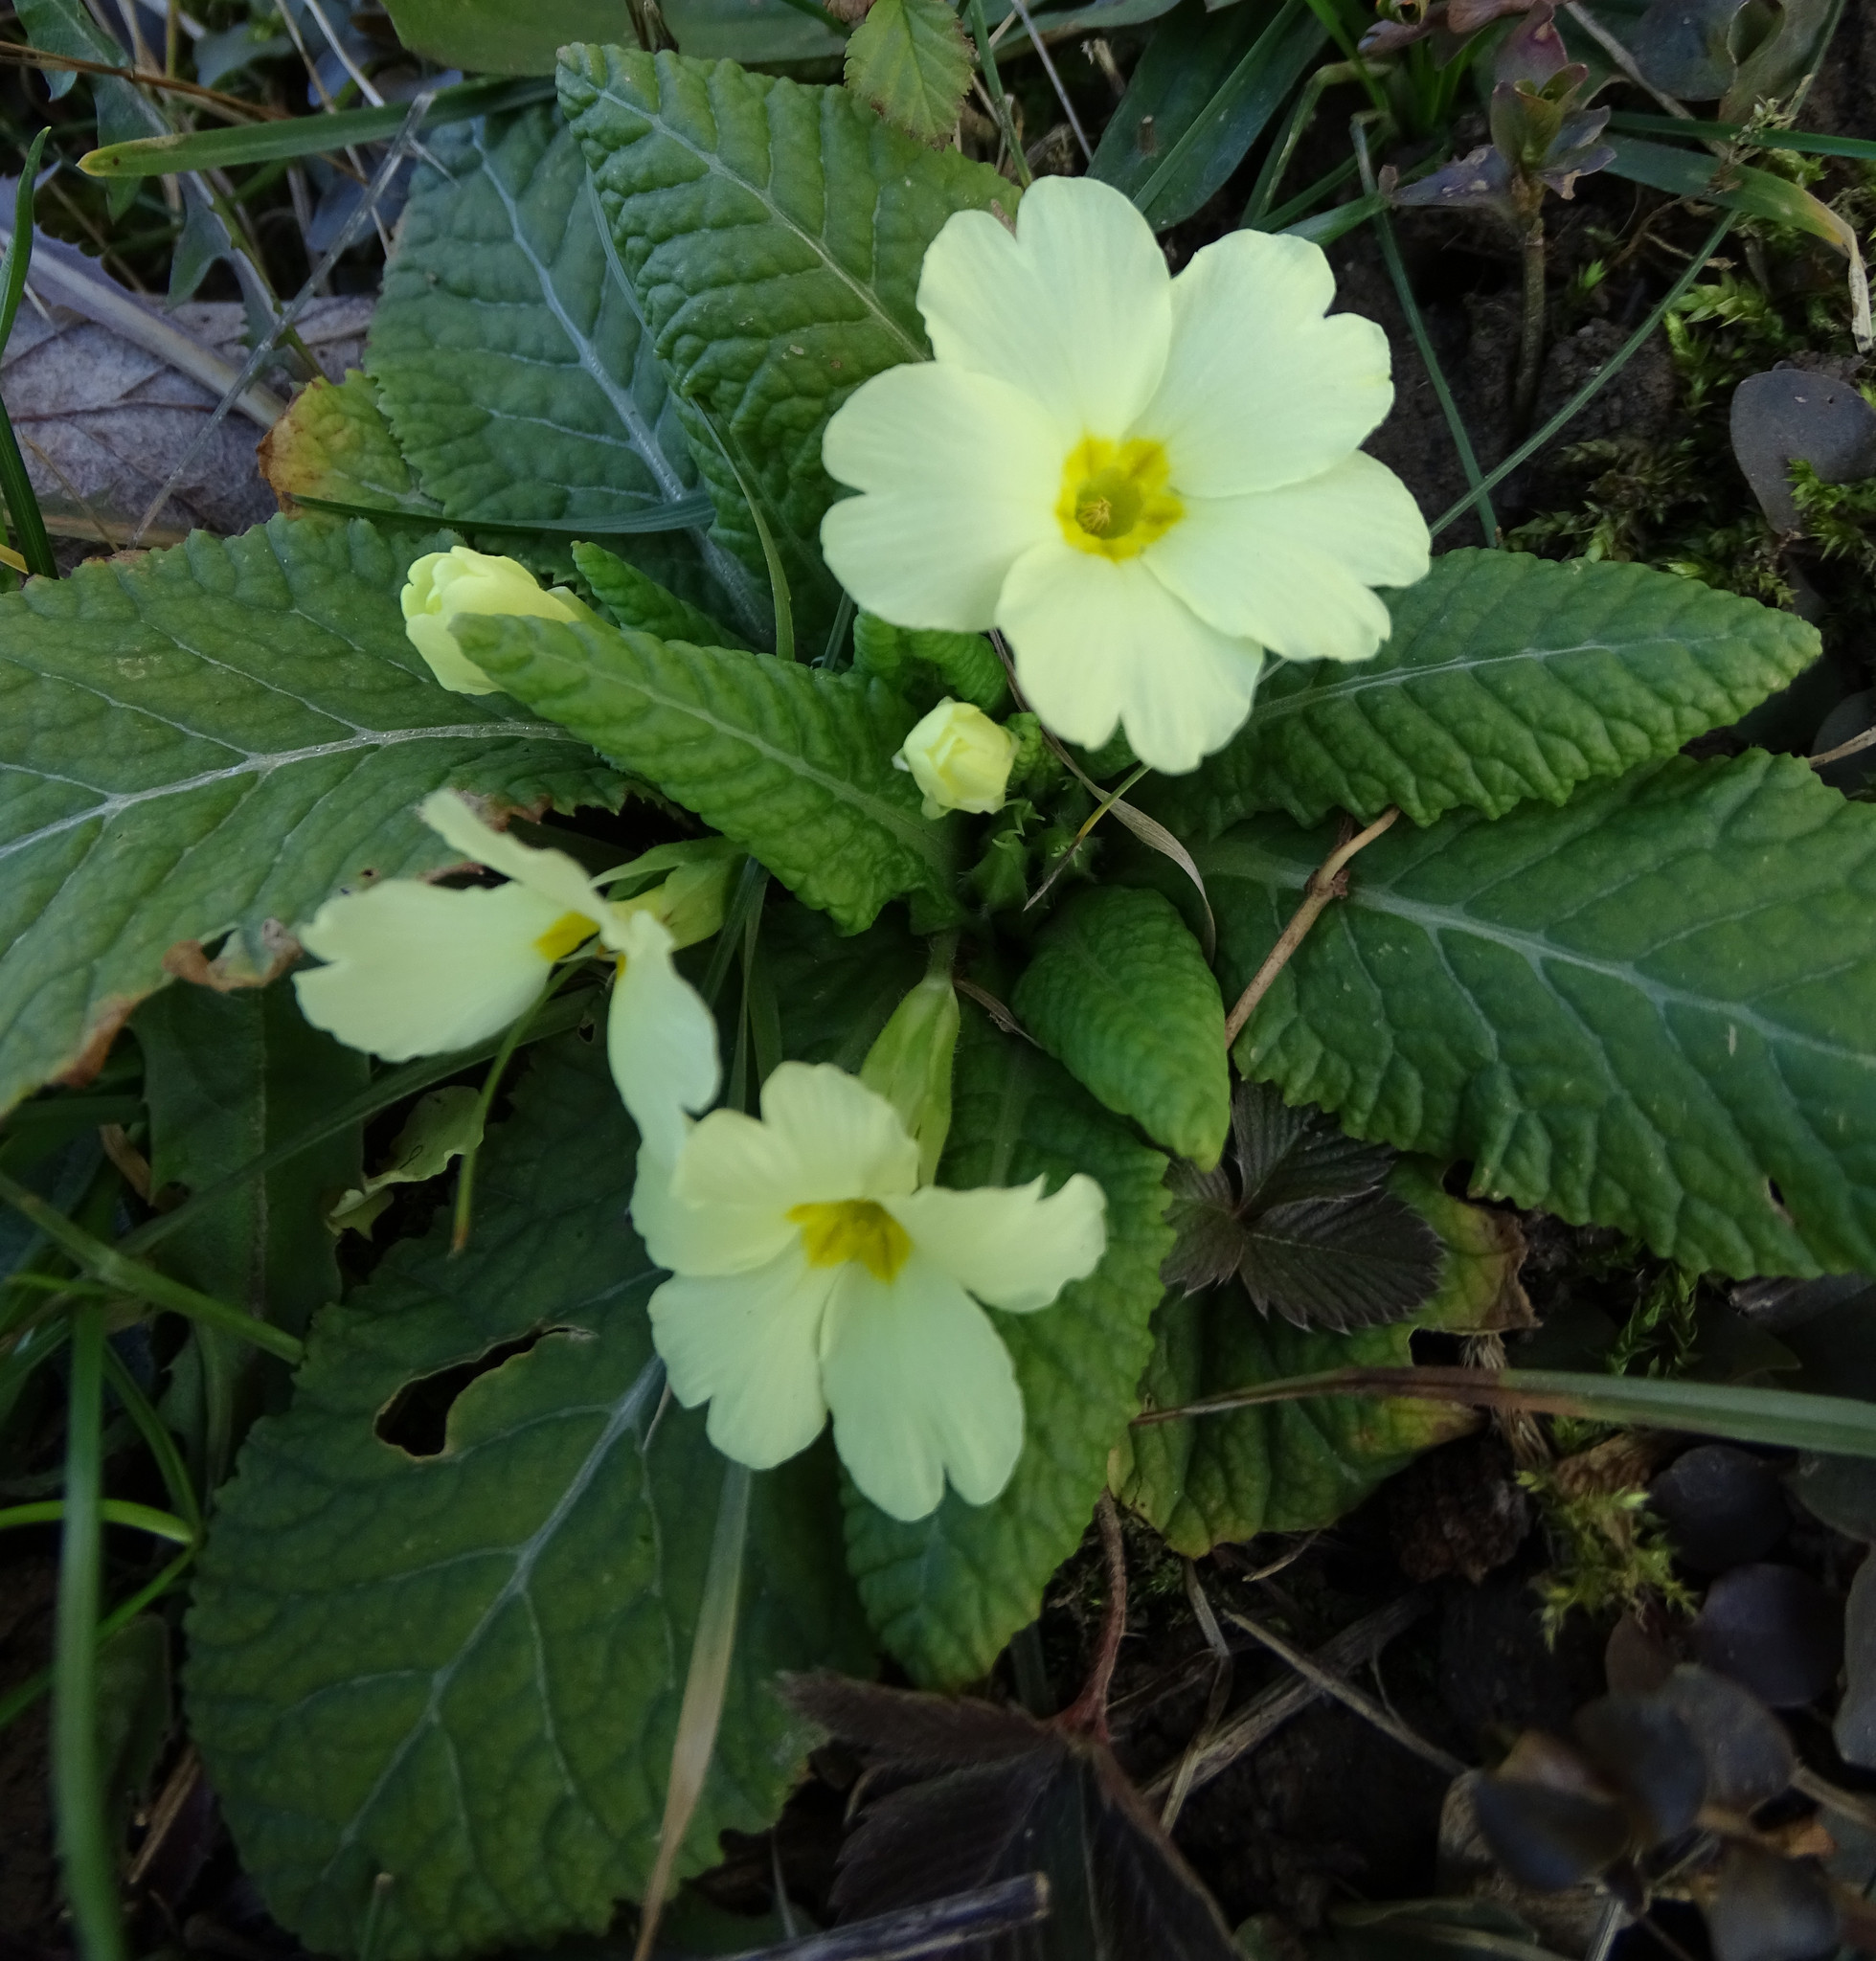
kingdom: Plantae
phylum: Tracheophyta
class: Magnoliopsida
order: Ericales
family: Primulaceae
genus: Primula
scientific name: Primula vulgaris
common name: Primrose
